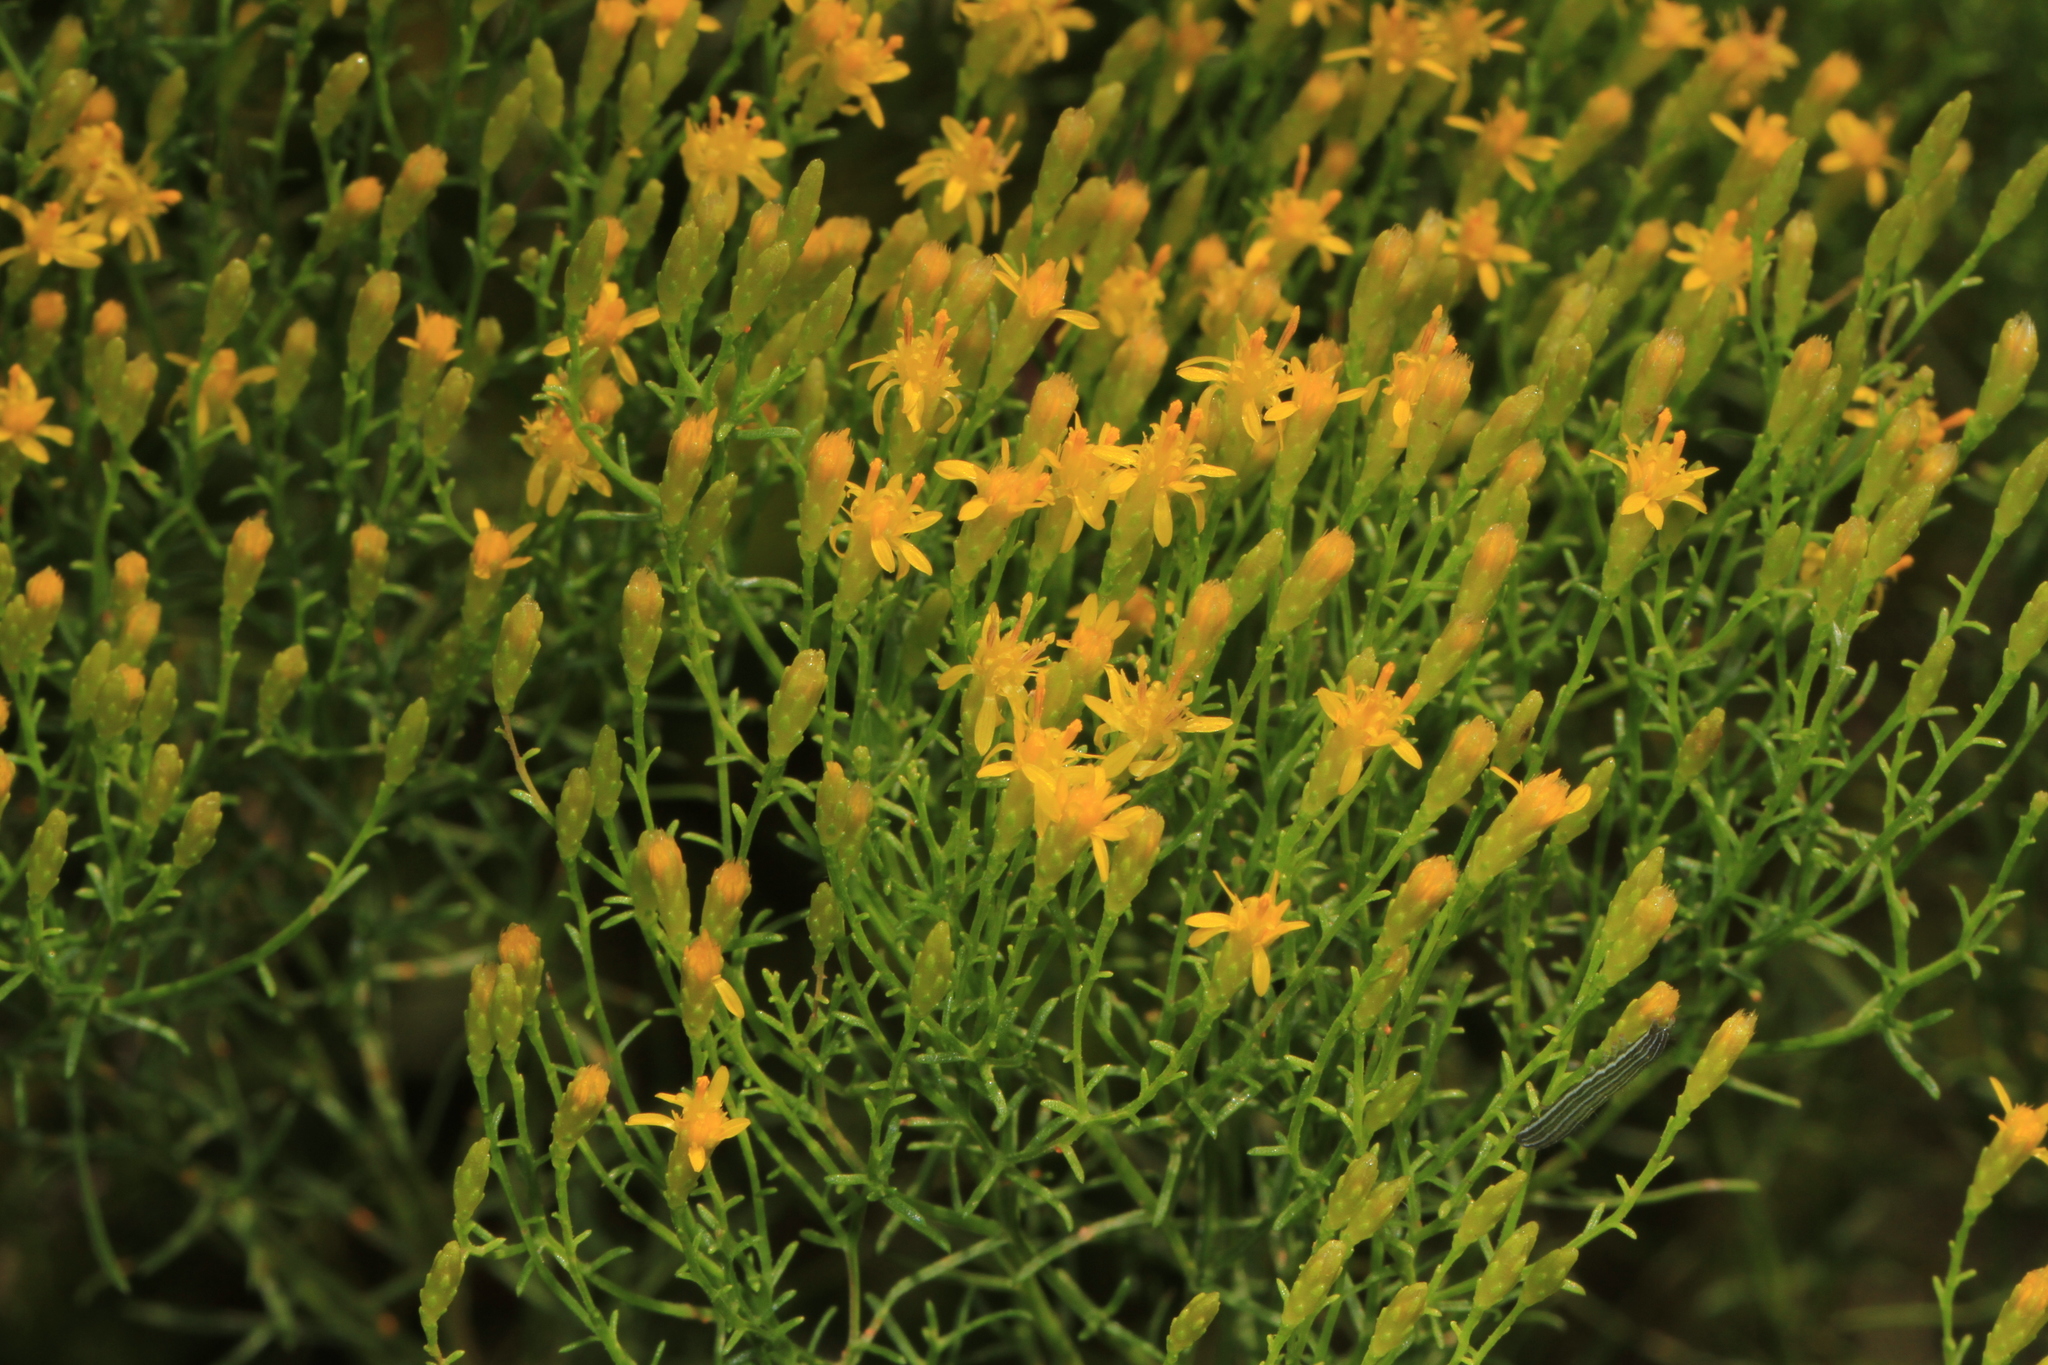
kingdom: Plantae
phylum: Tracheophyta
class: Magnoliopsida
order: Asterales
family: Asteraceae
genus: Euthamia
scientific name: Euthamia caroliniana
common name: Coastal plain goldentop
